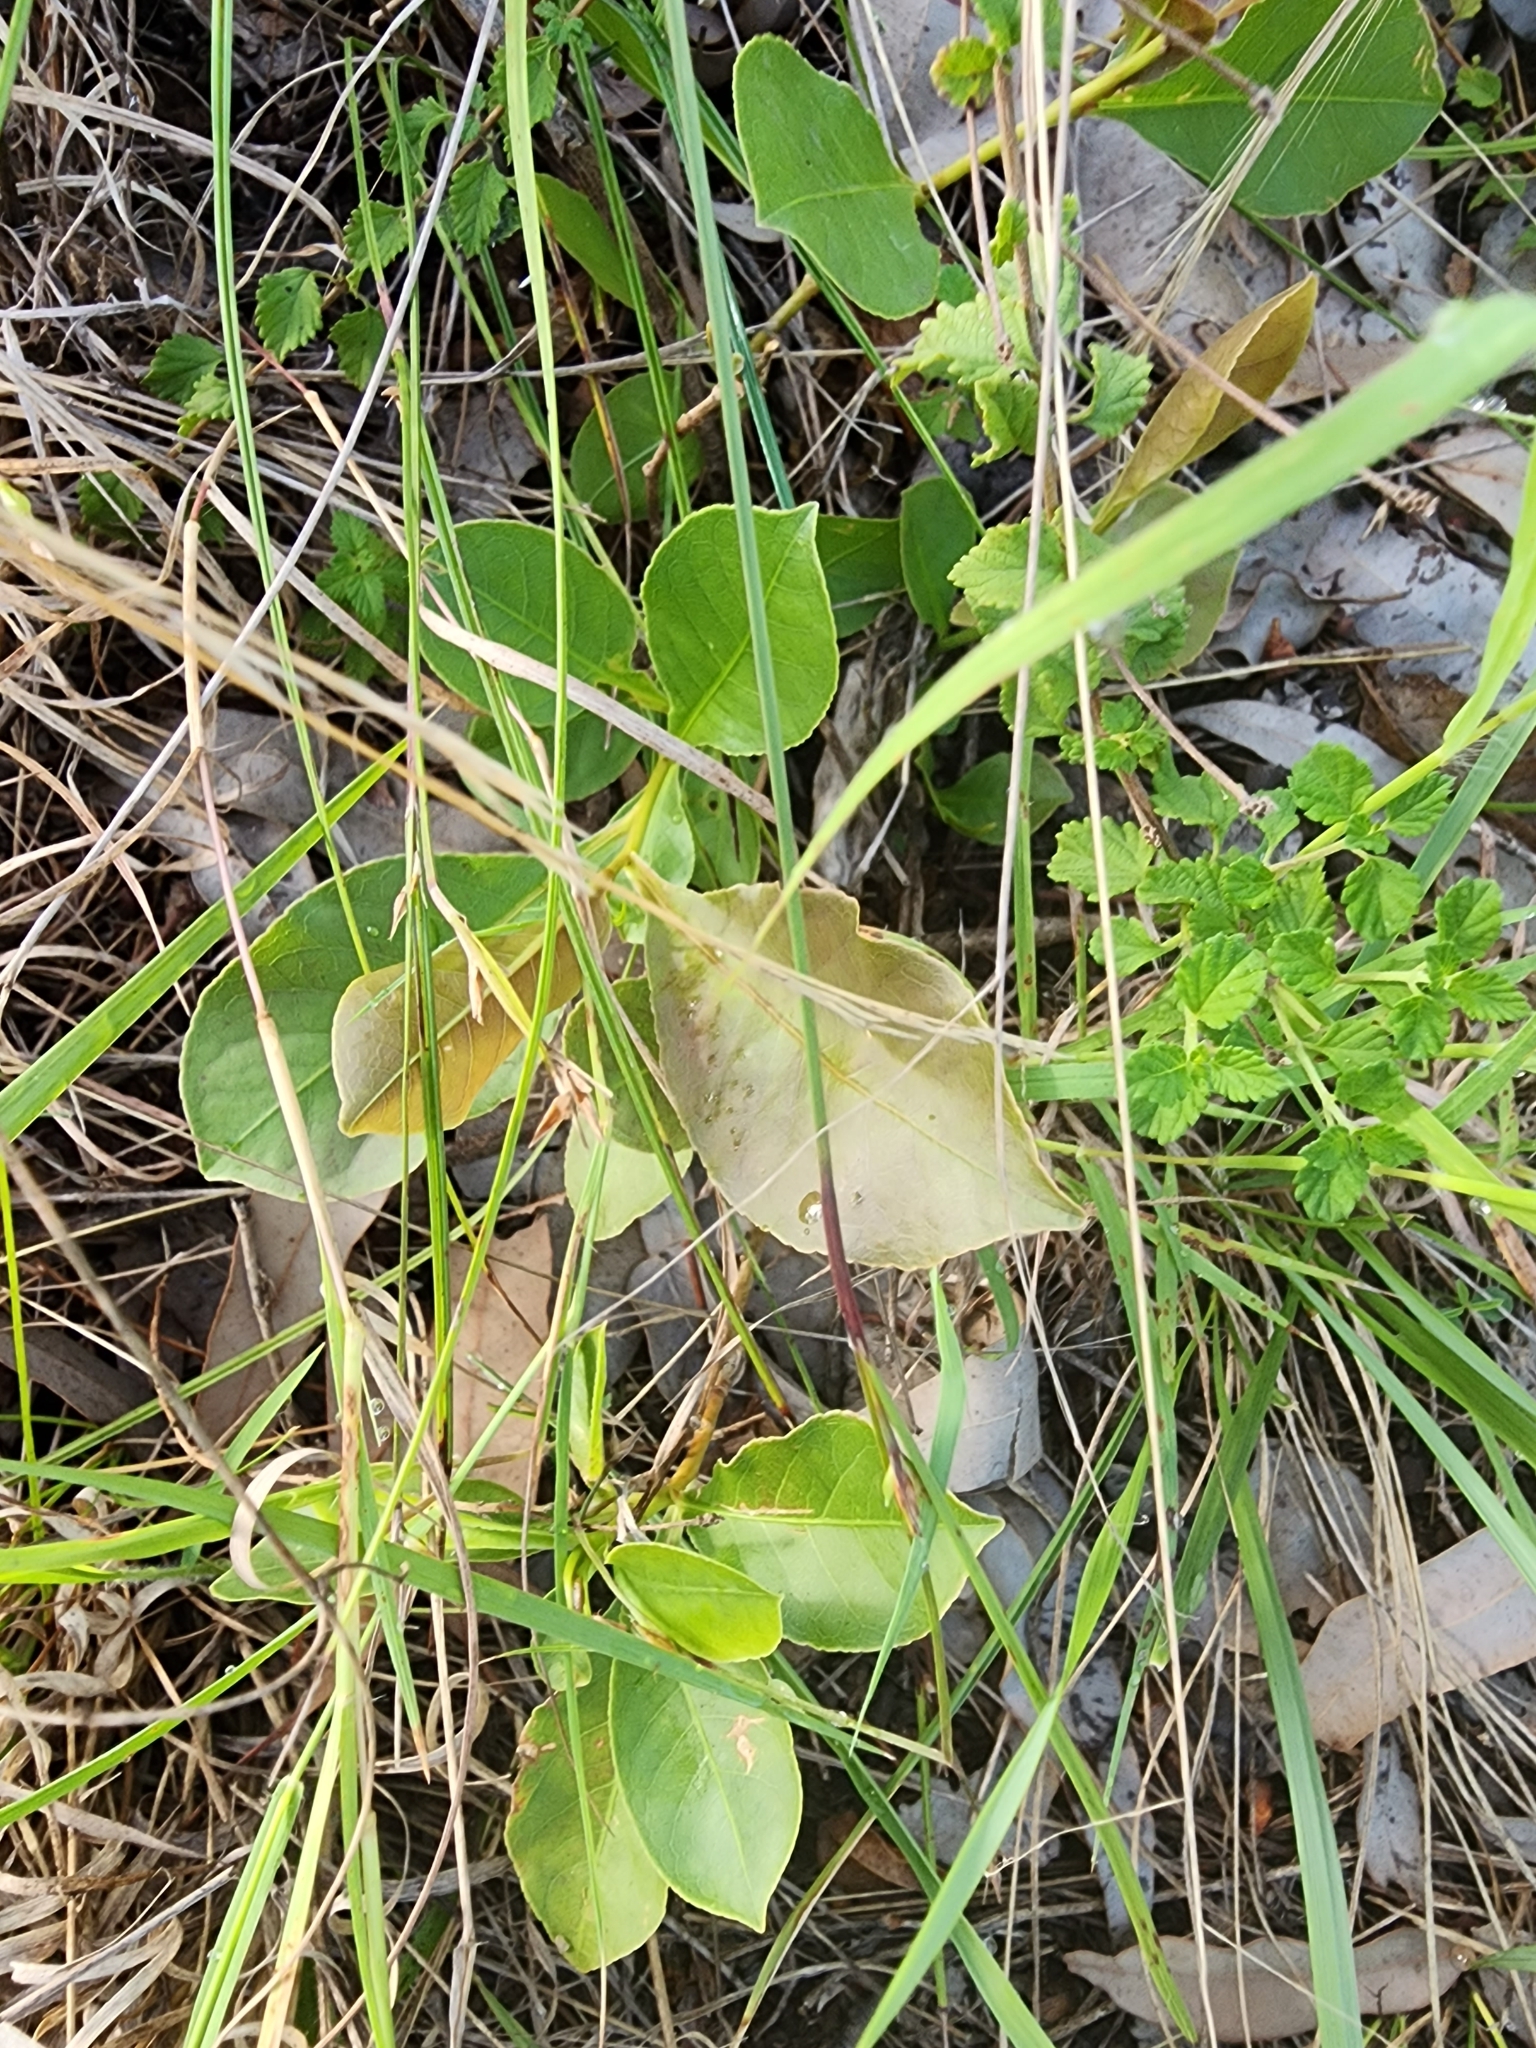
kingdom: Plantae
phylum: Tracheophyta
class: Magnoliopsida
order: Ericales
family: Lecythidaceae
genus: Planchonia
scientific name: Planchonia careya
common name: Cockatoo-apple
